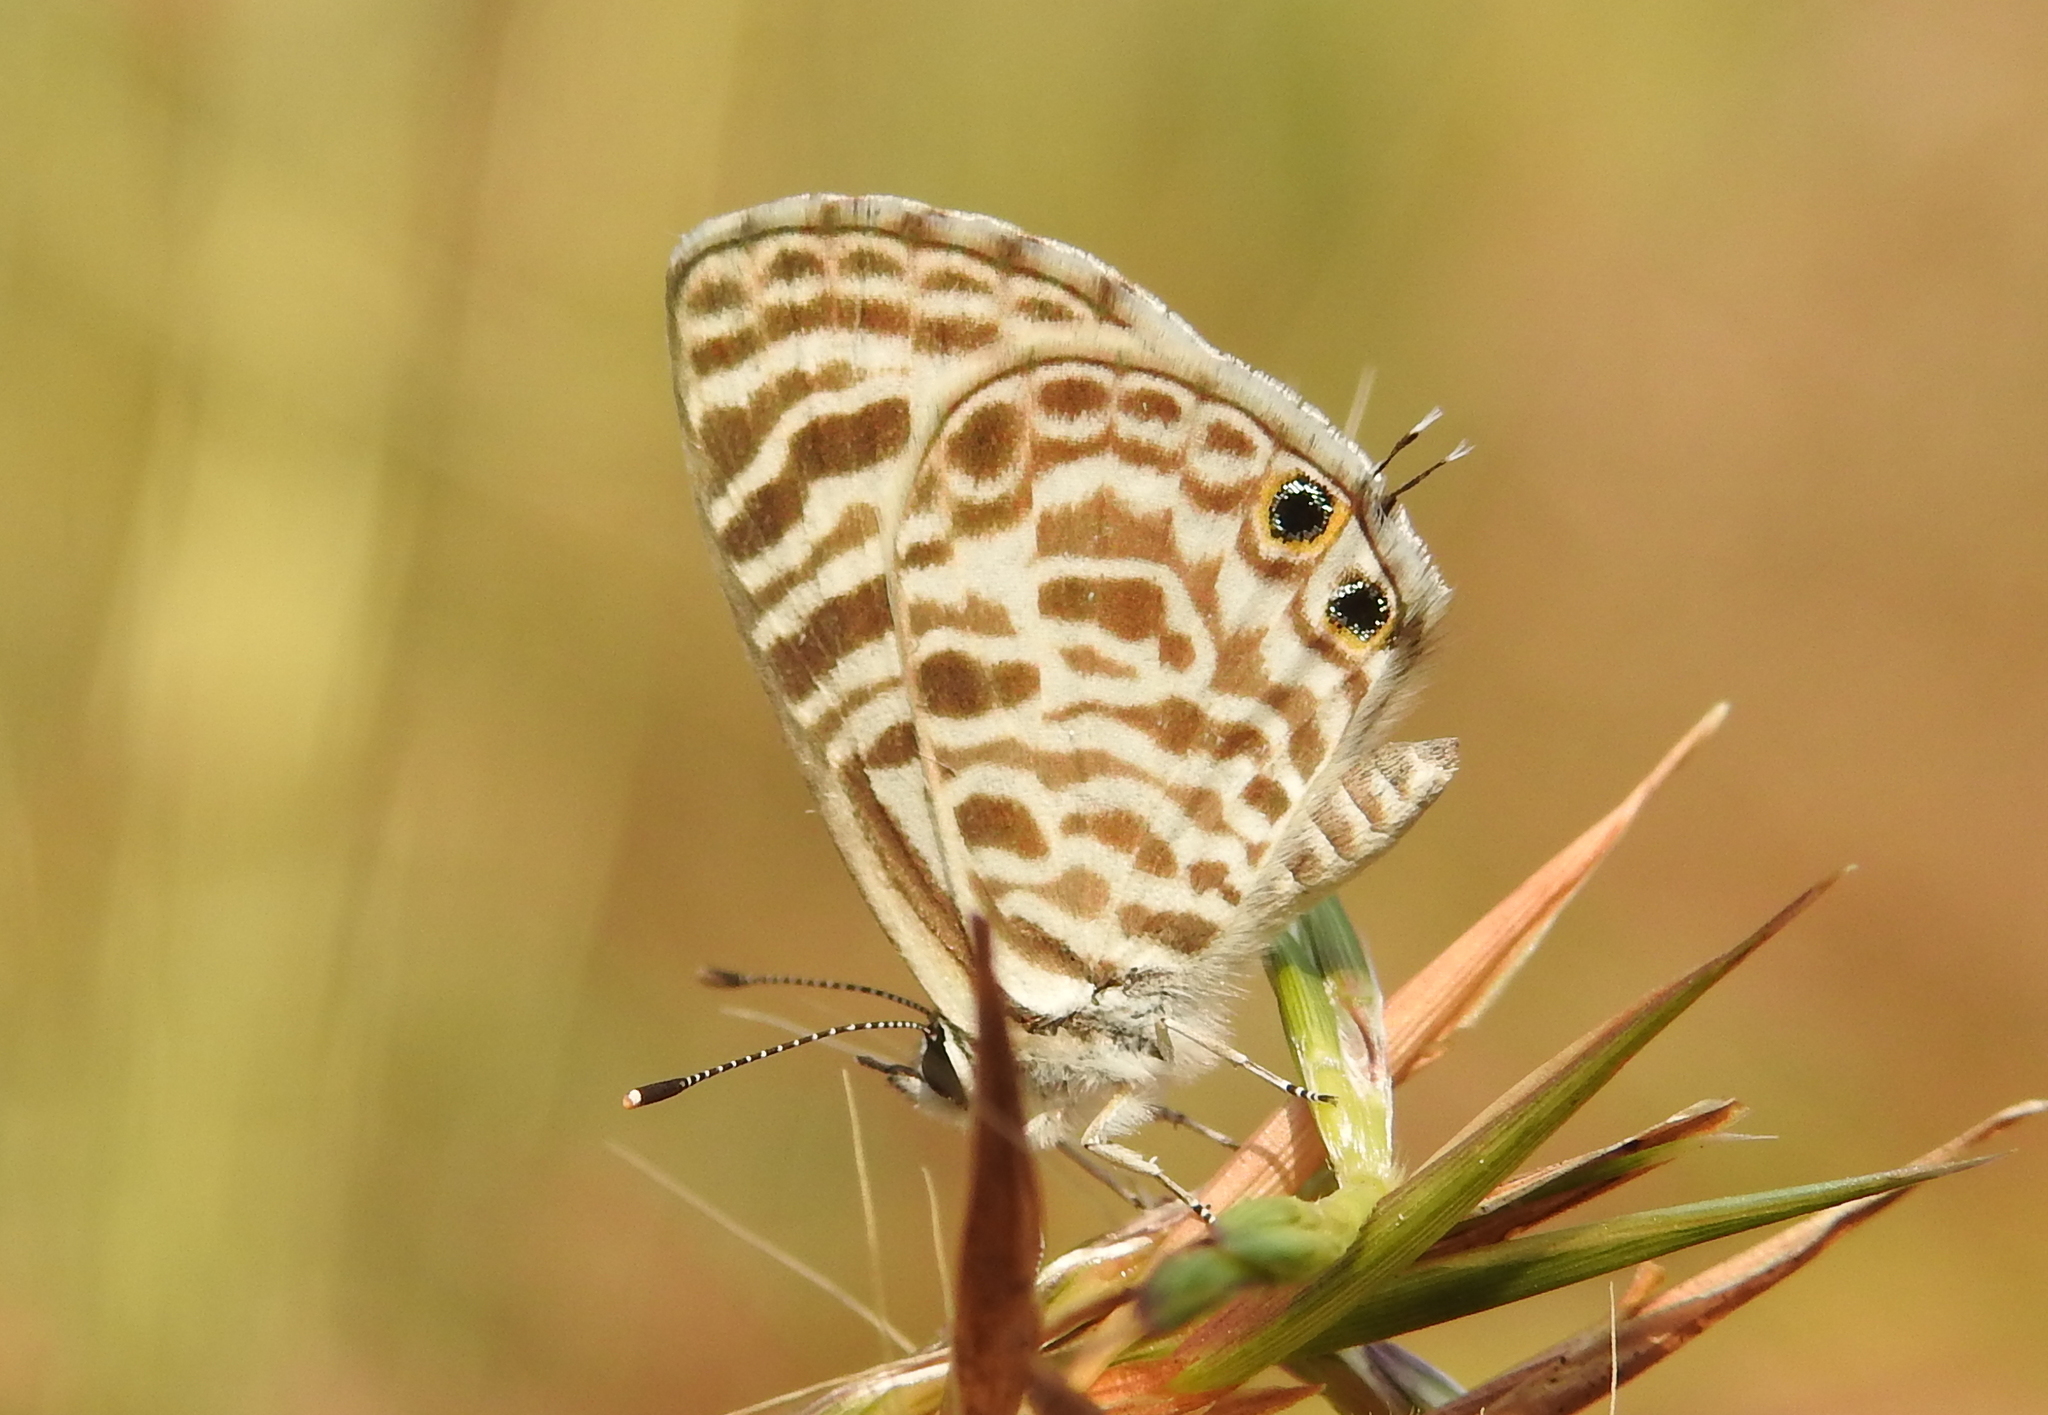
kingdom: Animalia
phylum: Arthropoda
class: Insecta
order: Lepidoptera
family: Lycaenidae
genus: Leptotes
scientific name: Leptotes plinius
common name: Zebra blue
